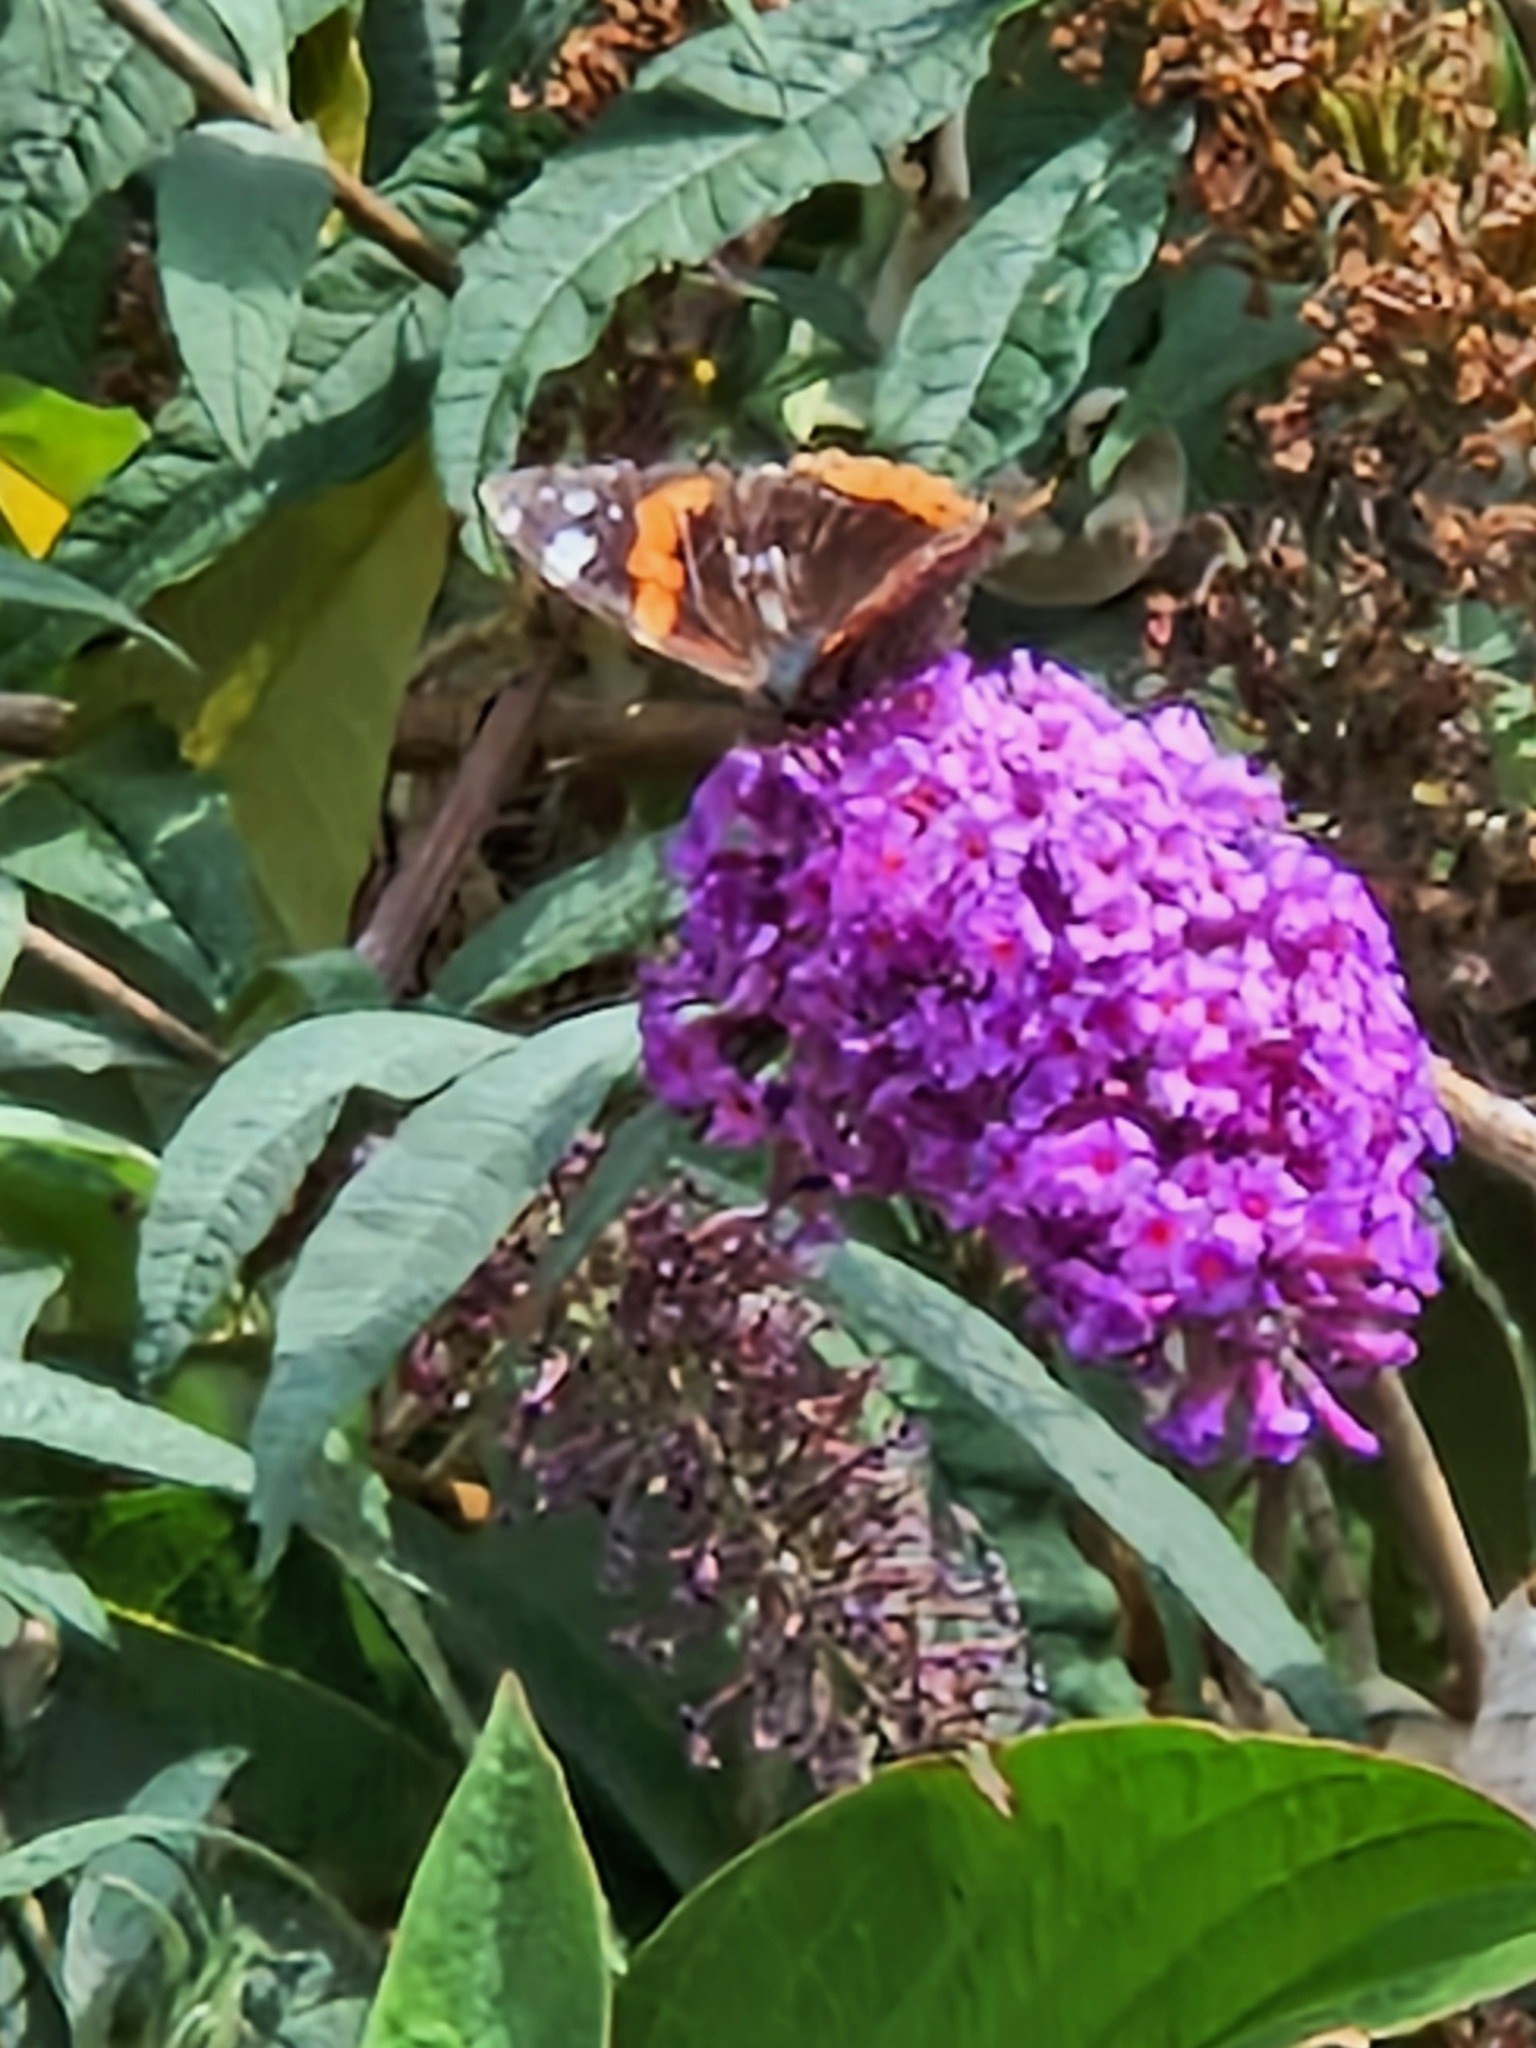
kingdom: Animalia
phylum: Arthropoda
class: Insecta
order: Lepidoptera
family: Nymphalidae
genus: Vanessa
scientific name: Vanessa atalanta
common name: Red admiral
